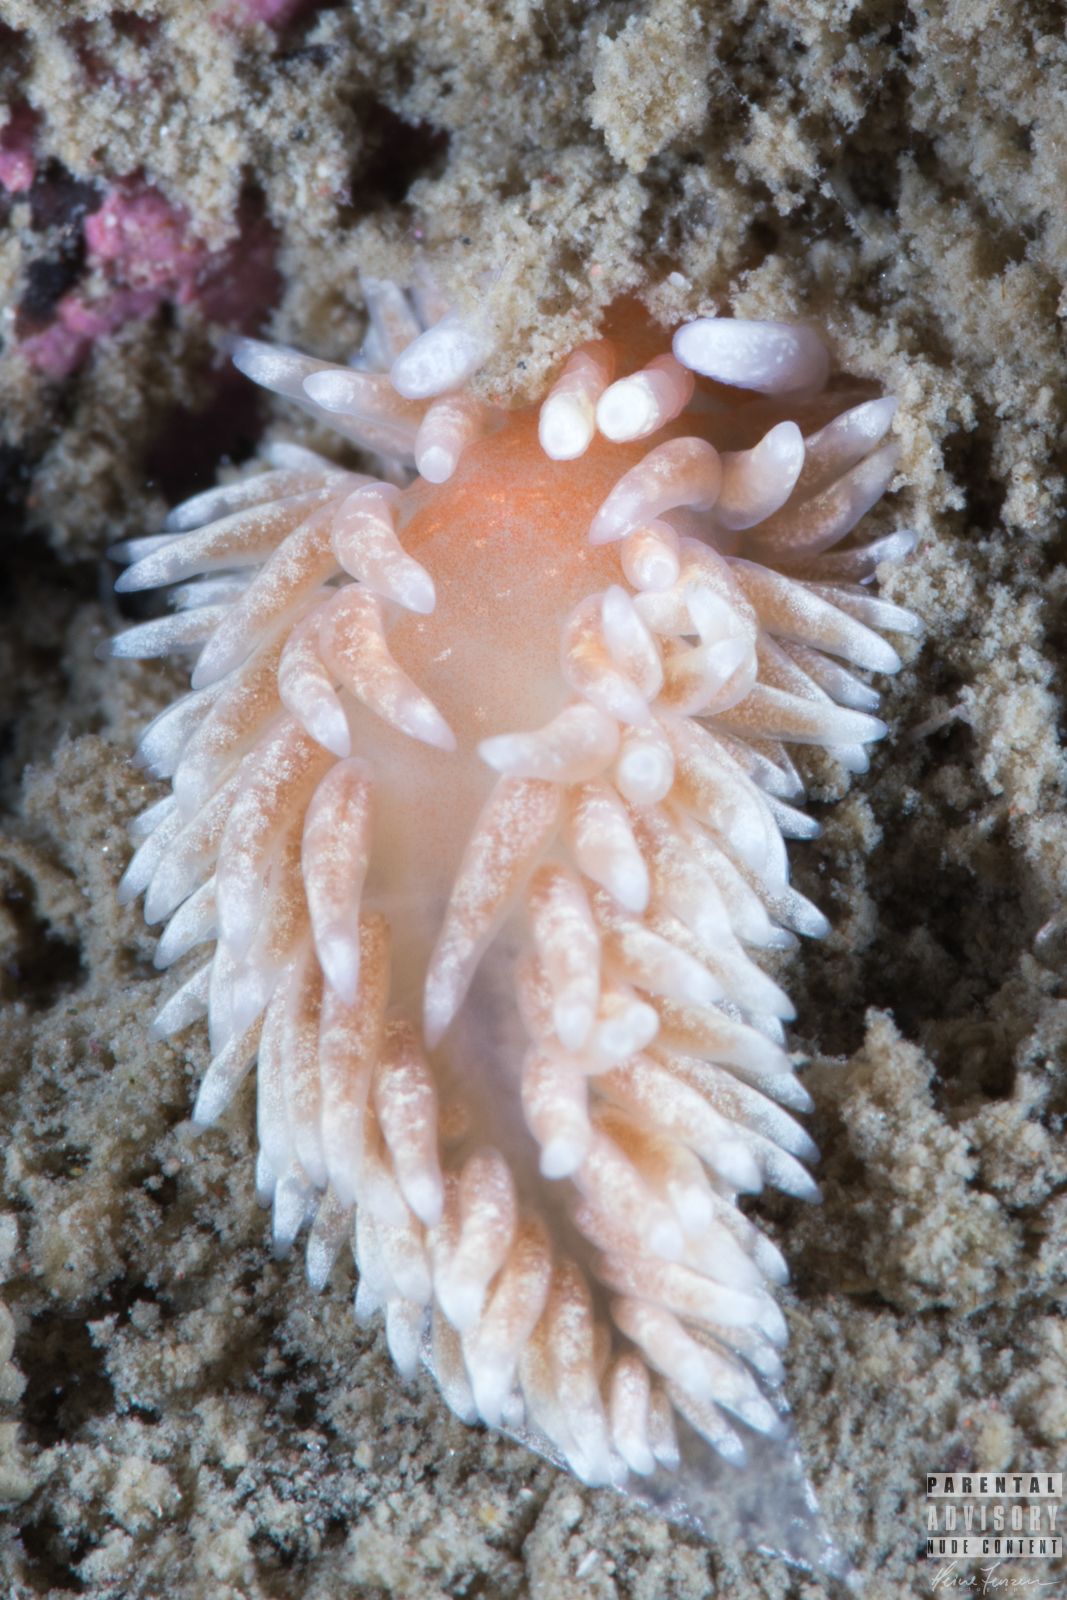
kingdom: Animalia
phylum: Mollusca
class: Gastropoda
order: Nudibranchia
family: Aeolidiidae
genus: Aeolidiella
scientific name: Aeolidiella glauca
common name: Orange-brown aeolid
